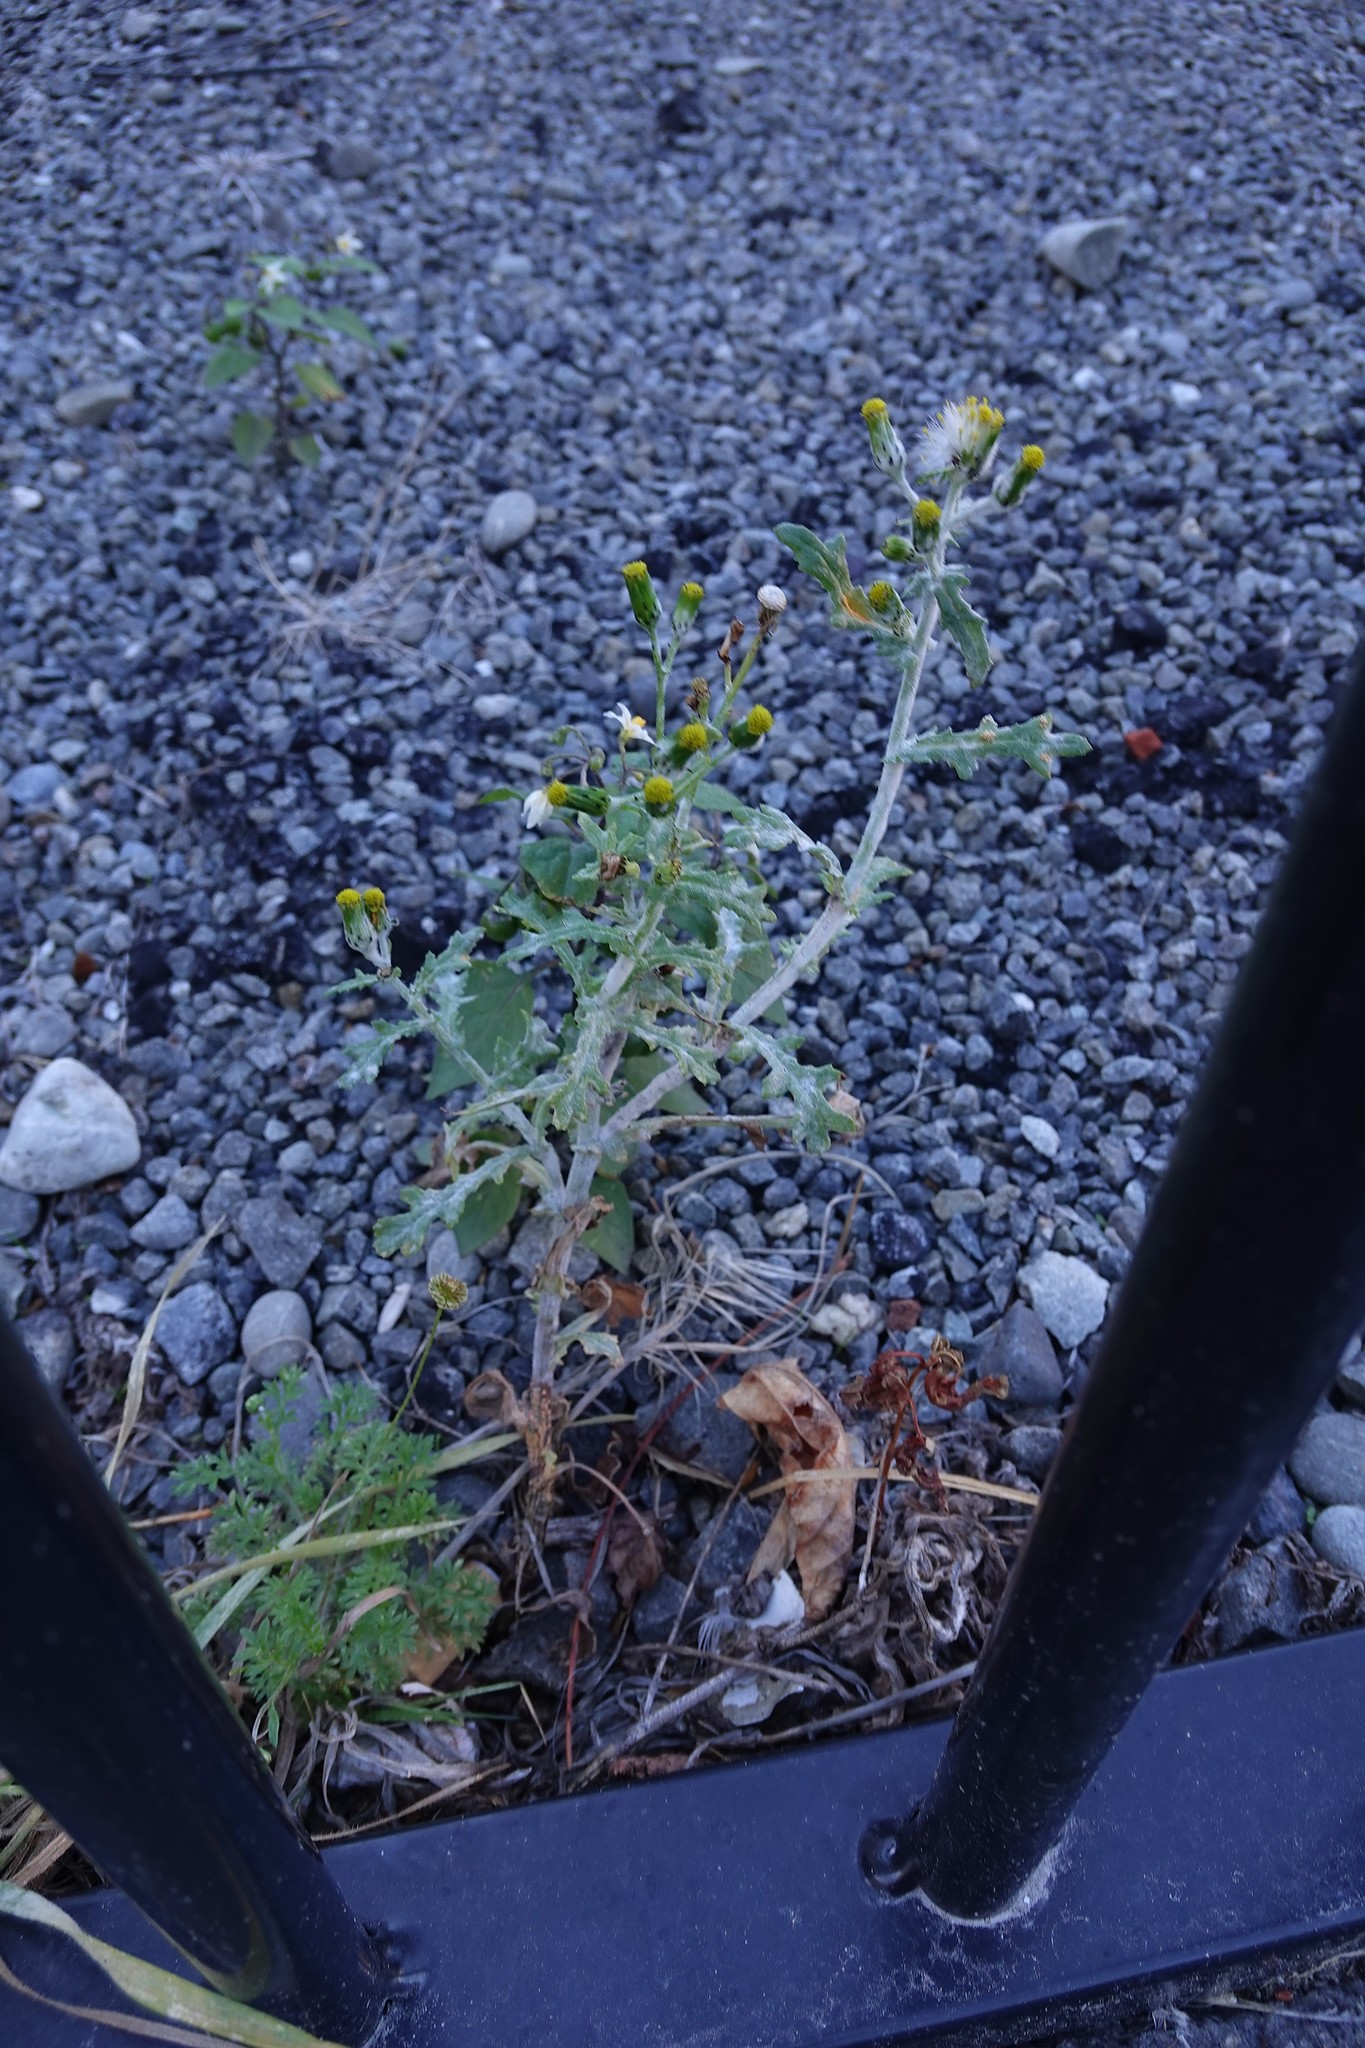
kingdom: Plantae
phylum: Tracheophyta
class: Magnoliopsida
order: Asterales
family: Asteraceae
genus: Senecio
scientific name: Senecio vulgaris
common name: Old-man-in-the-spring
